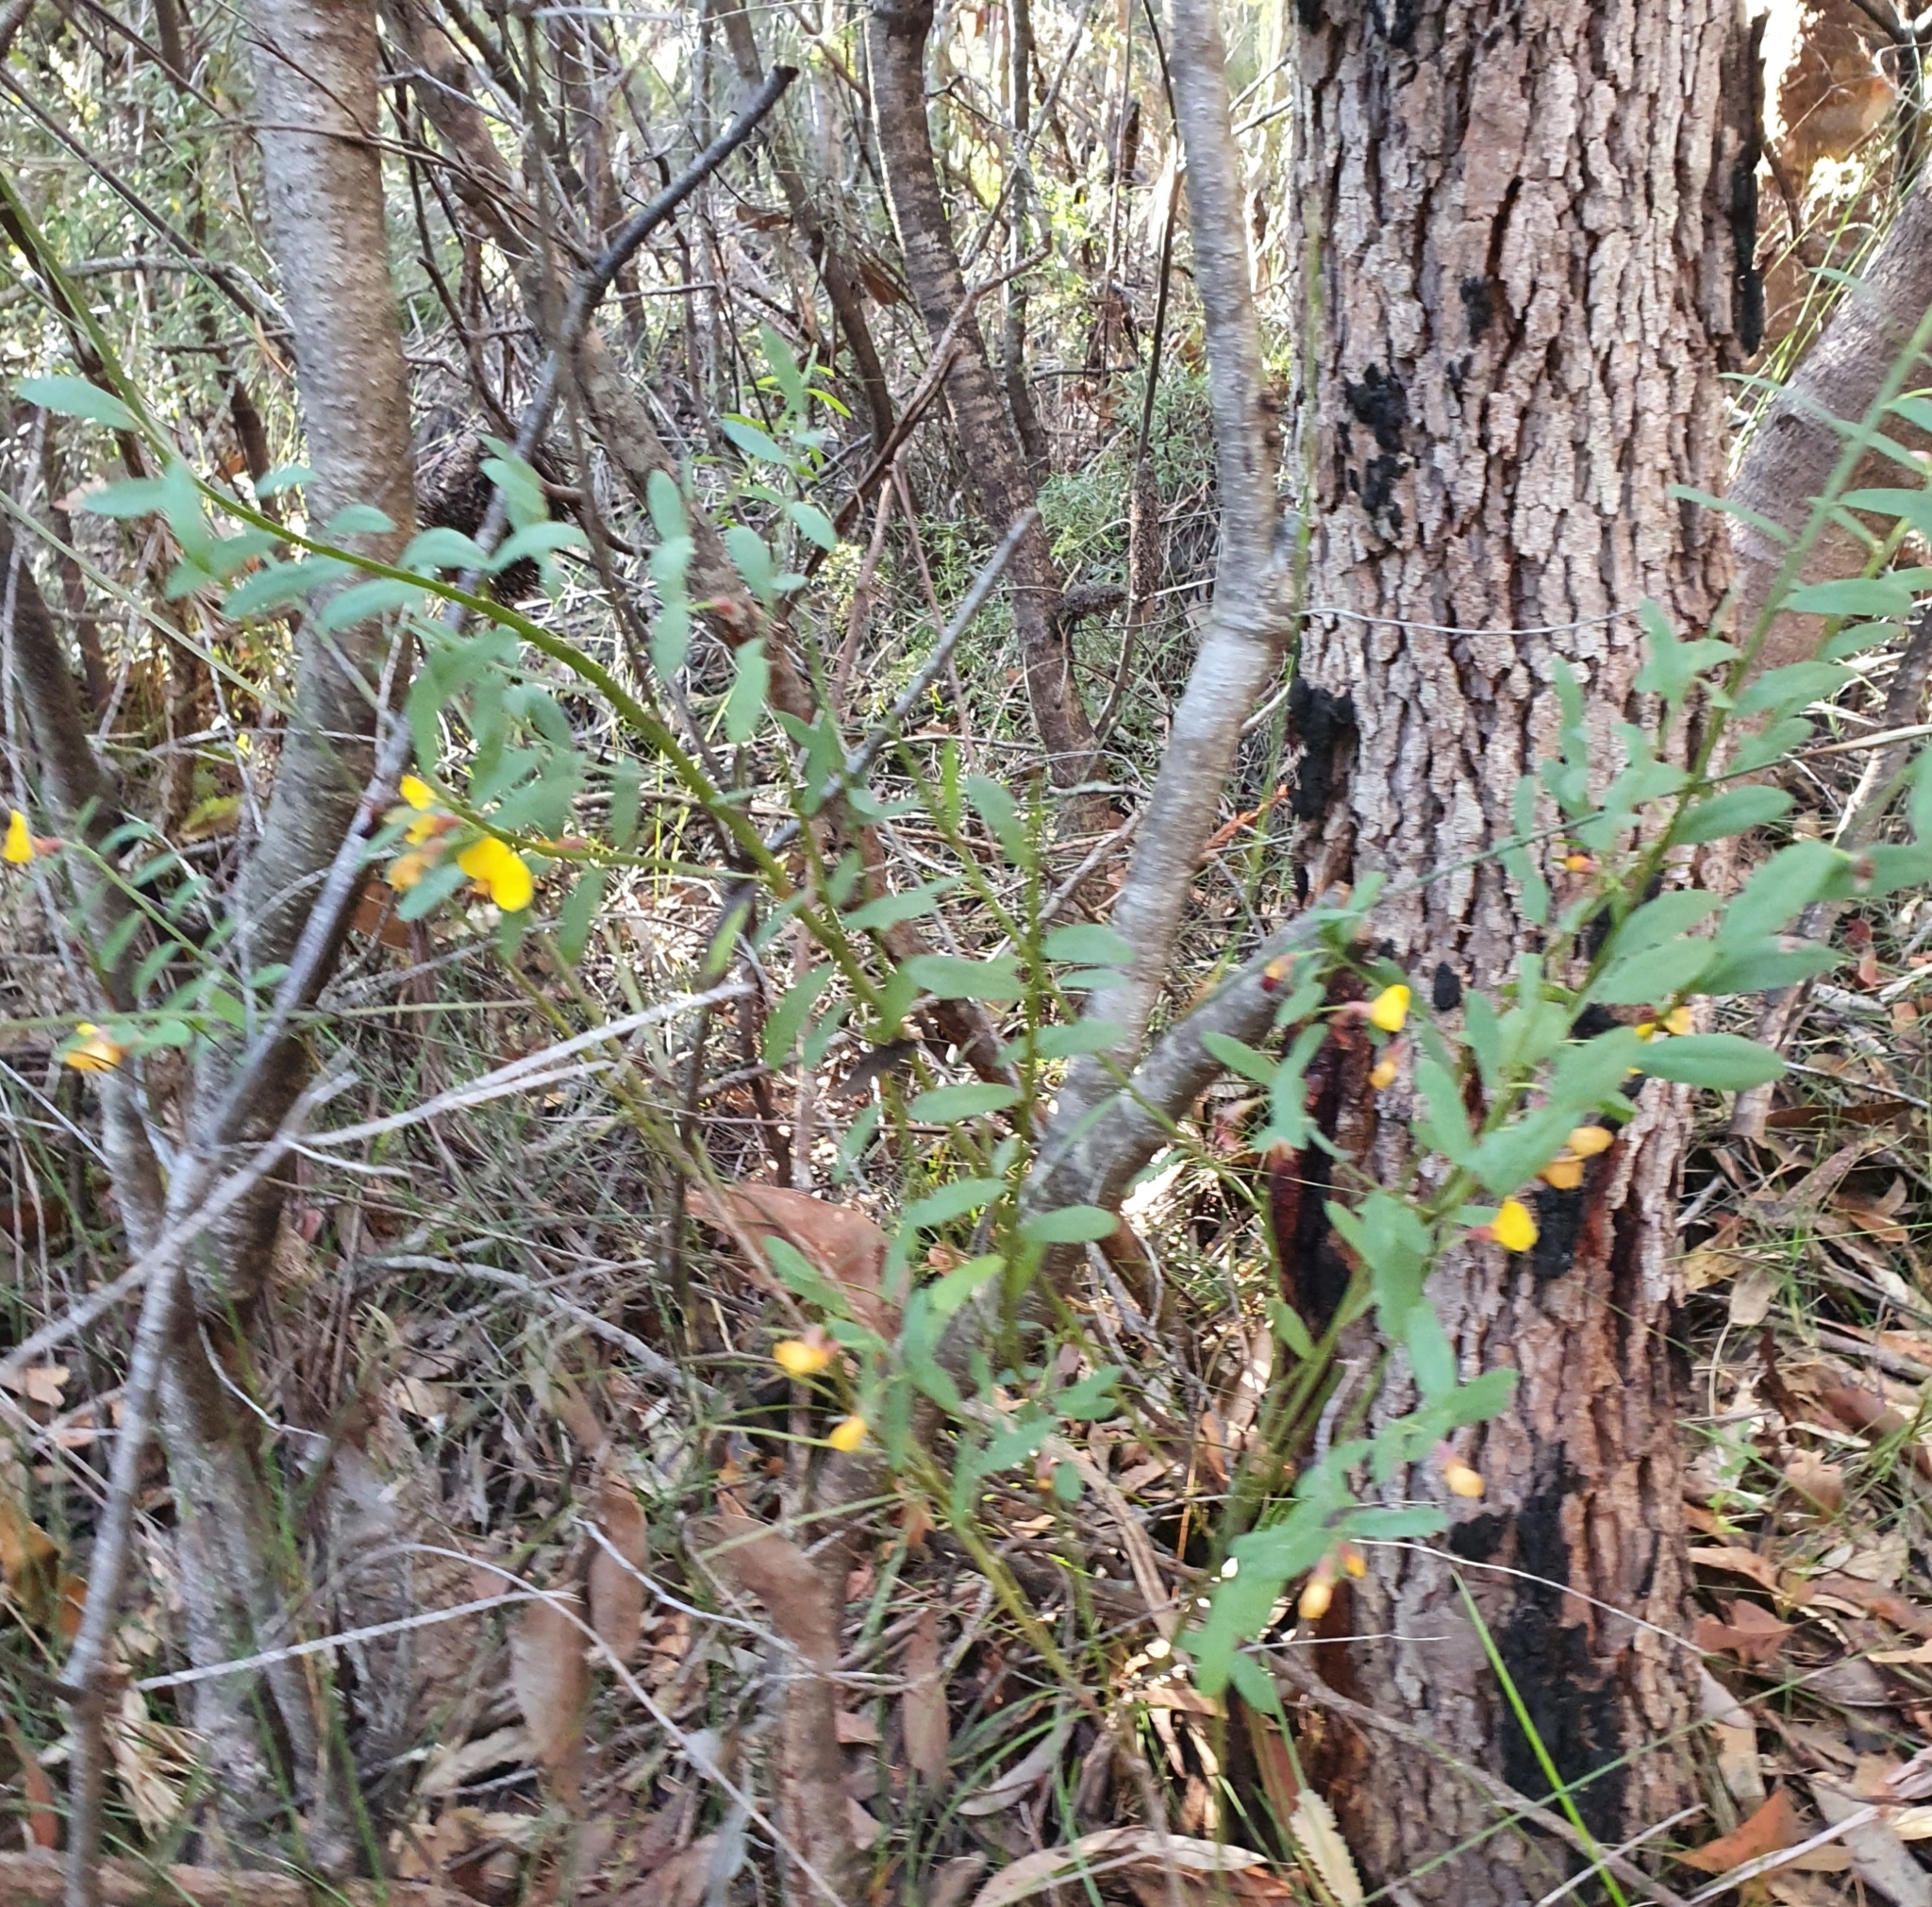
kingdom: Plantae
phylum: Tracheophyta
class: Magnoliopsida
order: Fabales
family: Fabaceae
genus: Bossiaea
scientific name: Bossiaea heterophylla
